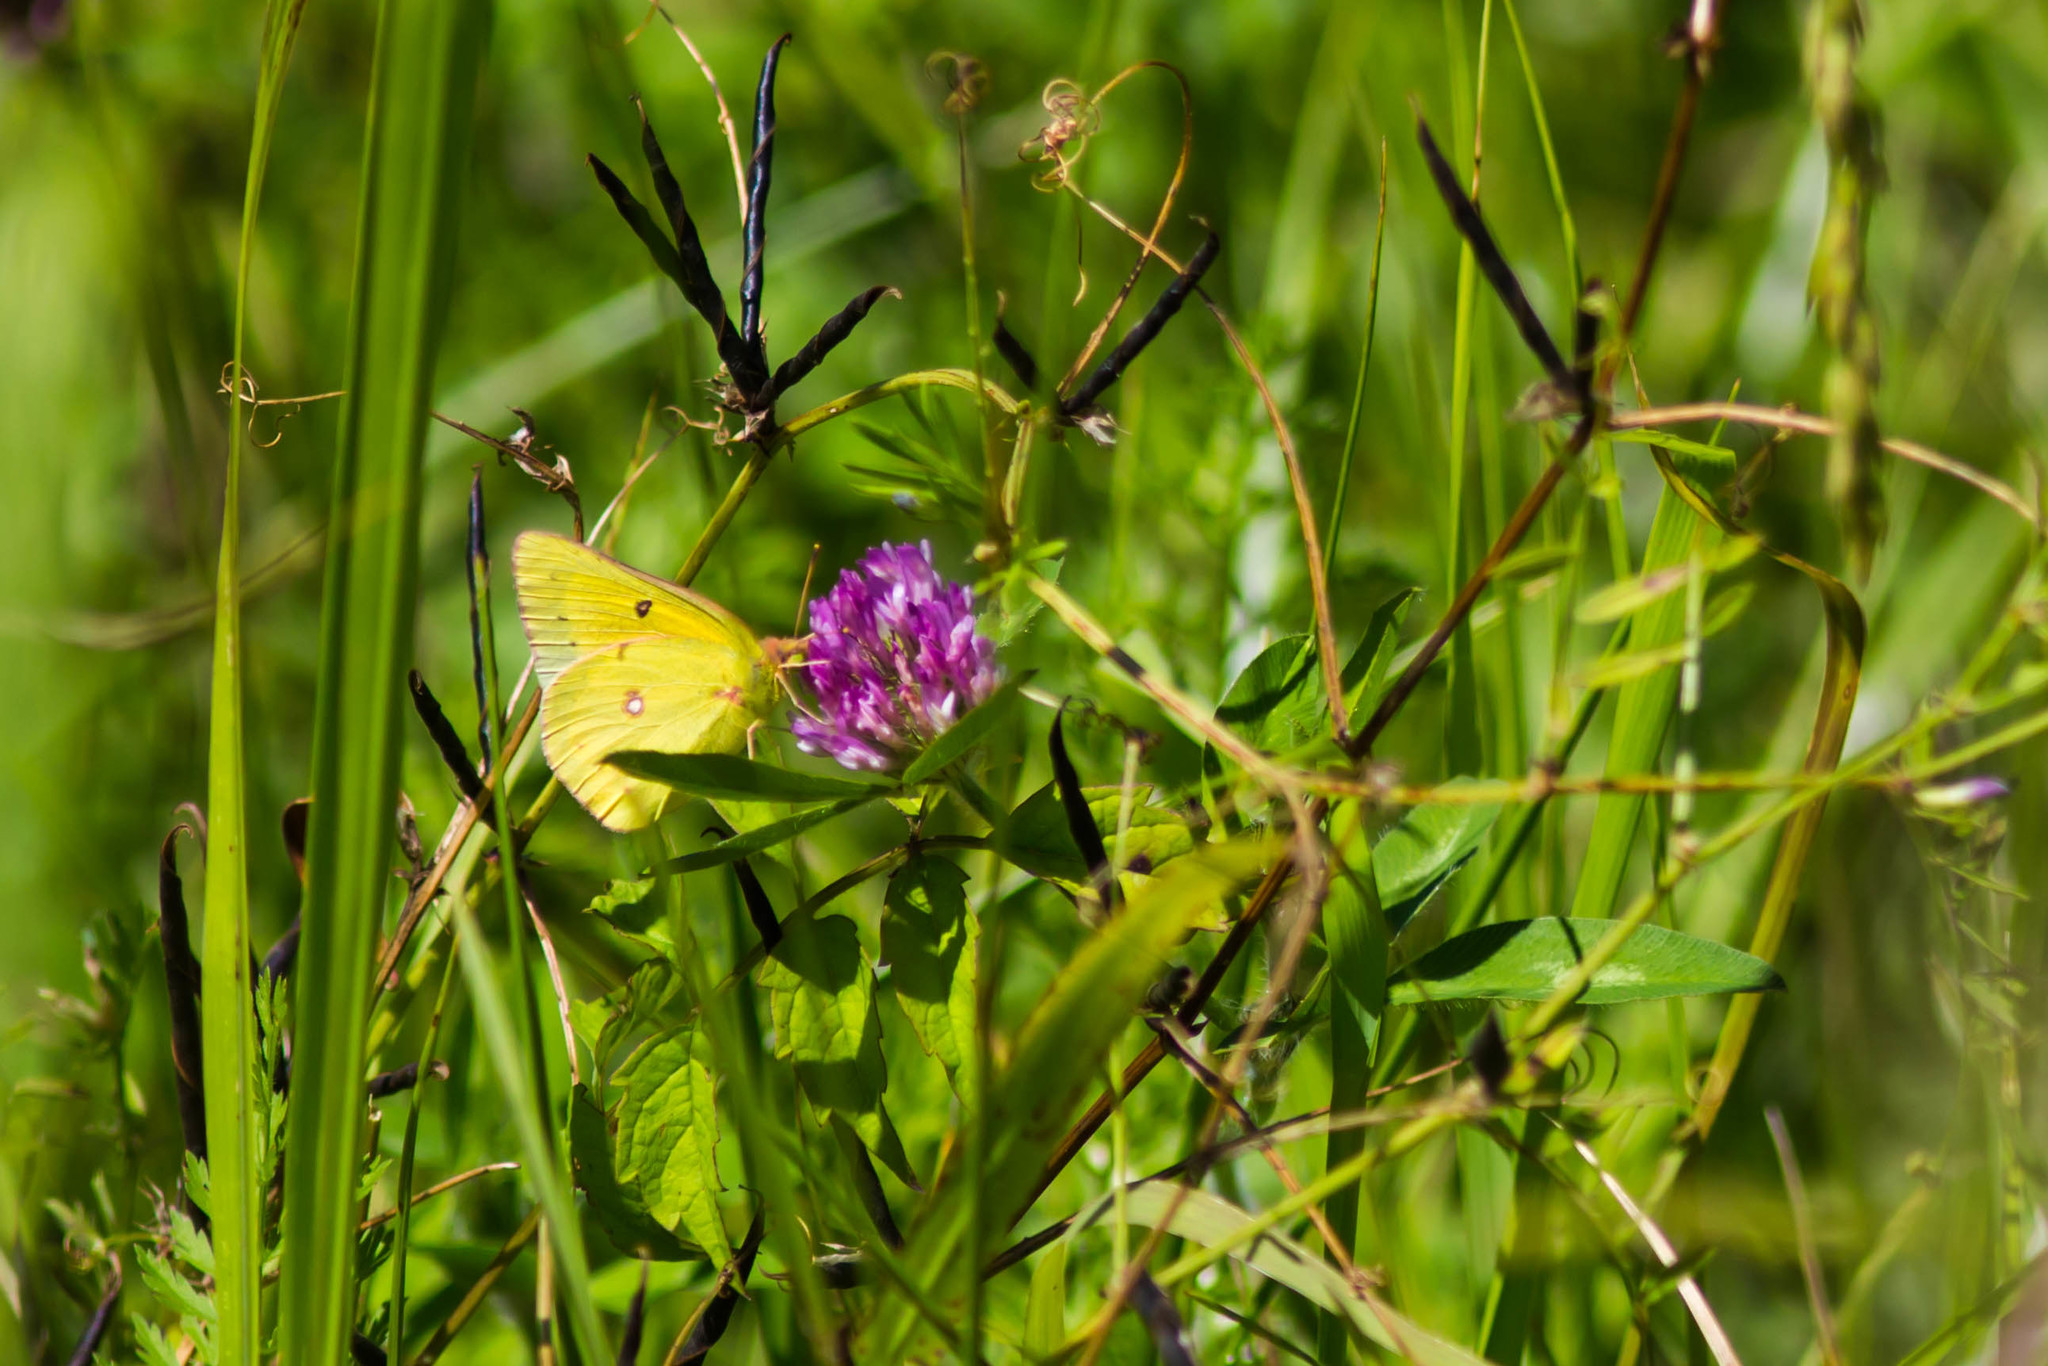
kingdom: Animalia
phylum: Arthropoda
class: Insecta
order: Lepidoptera
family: Pieridae
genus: Colias
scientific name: Colias eurytheme
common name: Alfalfa butterfly
